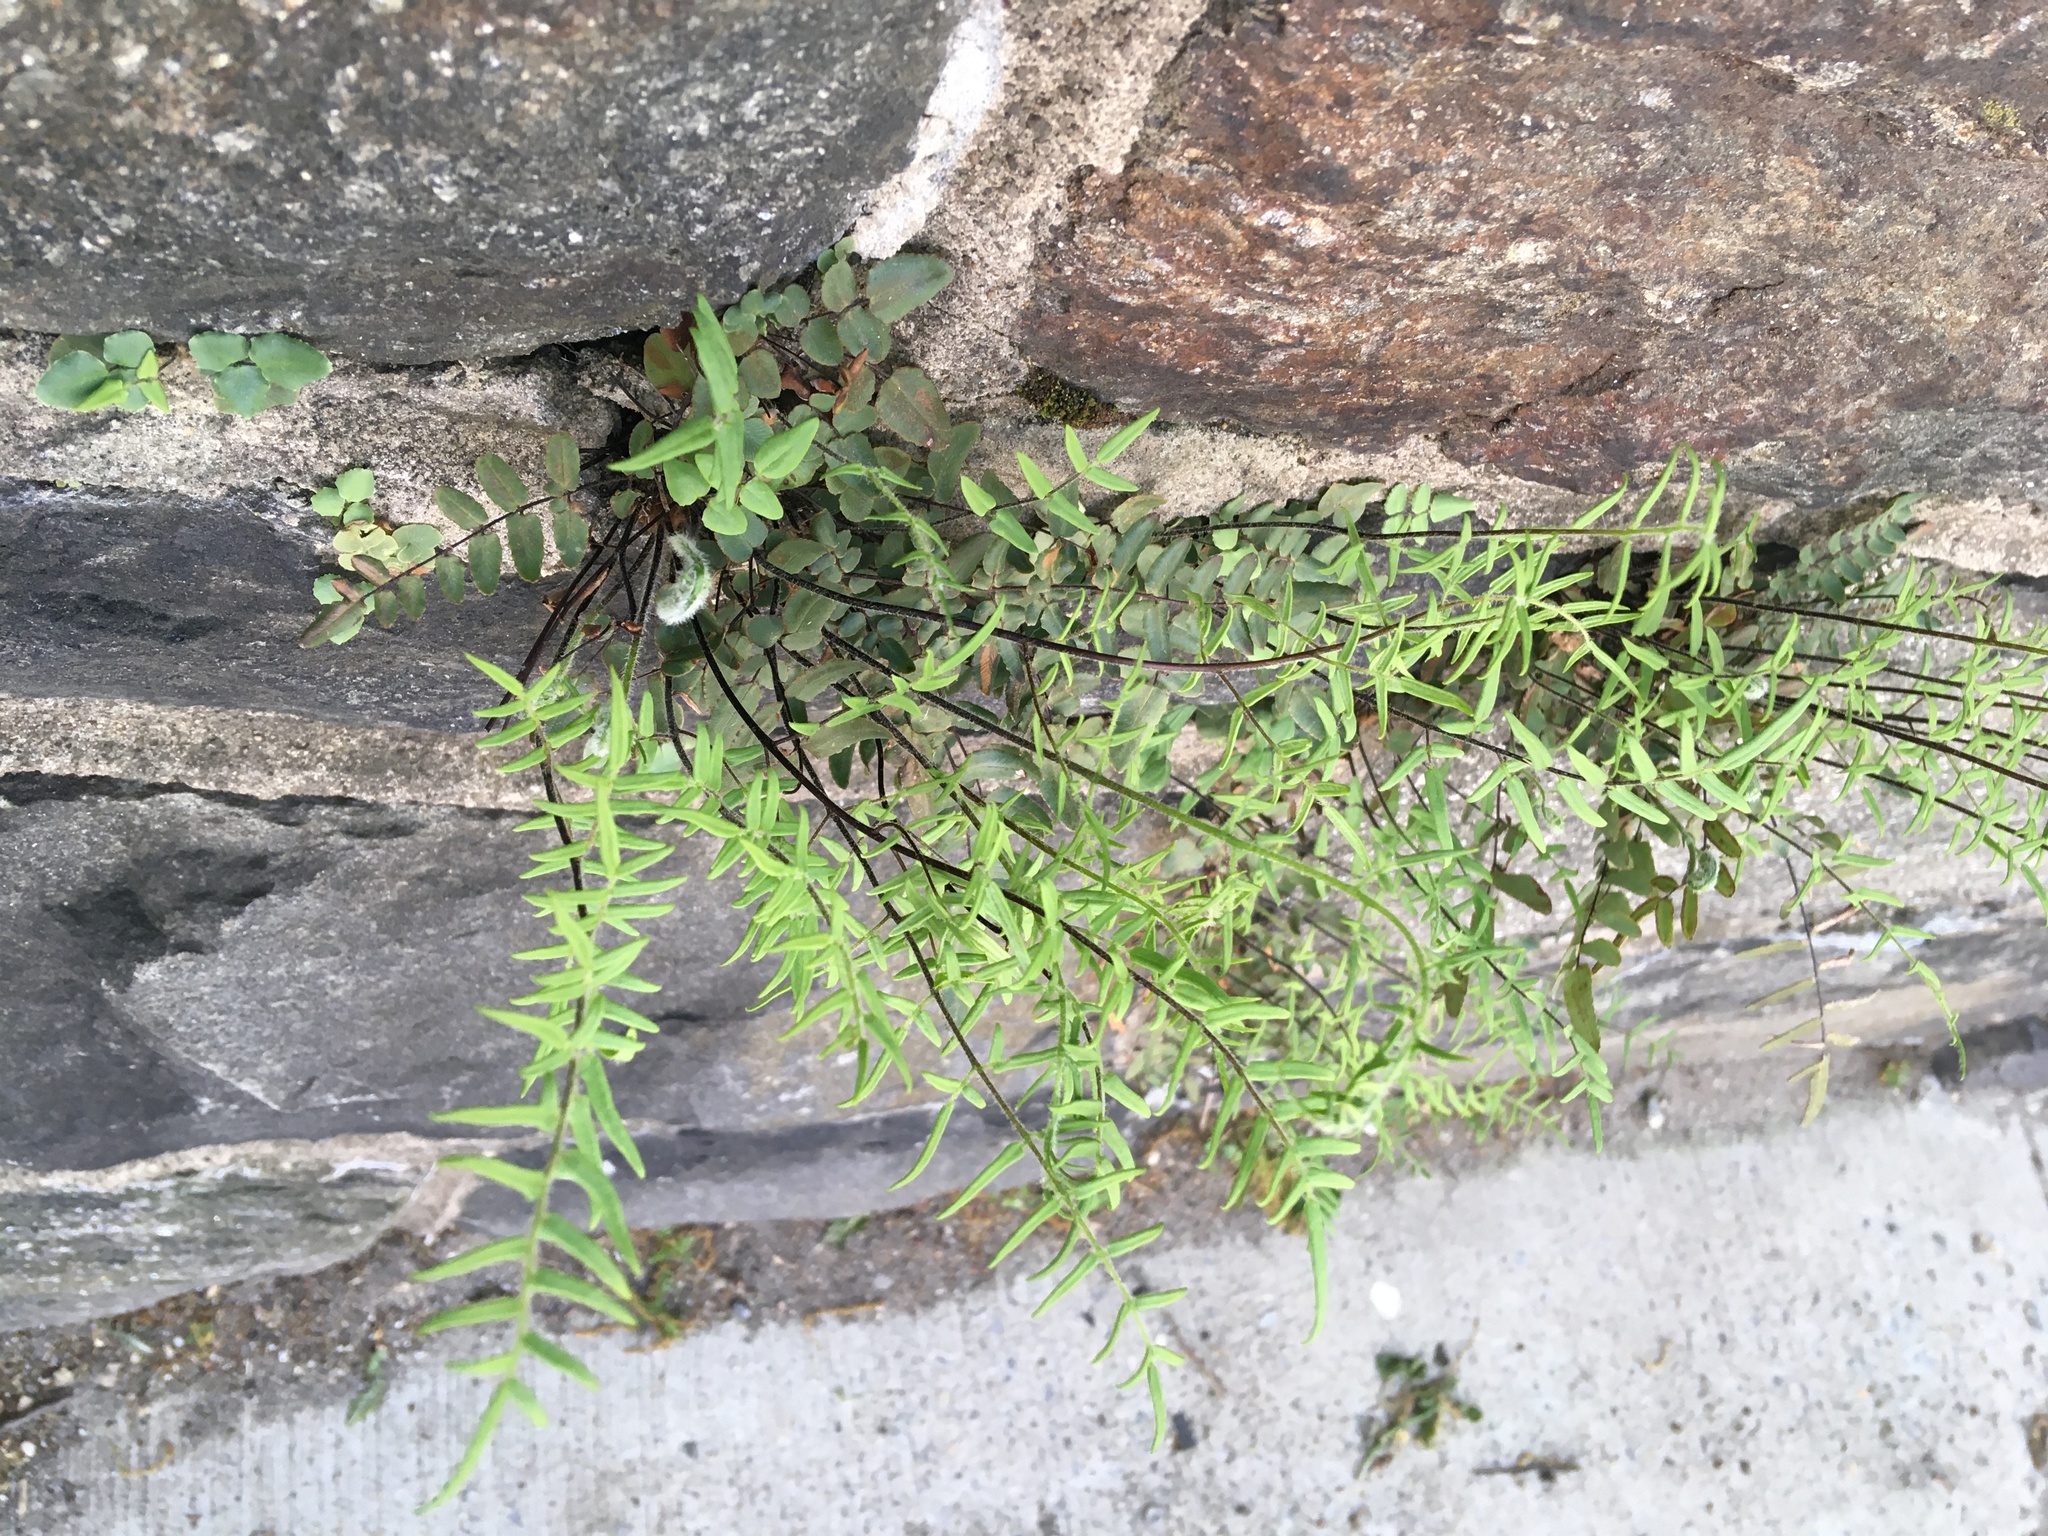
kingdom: Plantae
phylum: Tracheophyta
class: Polypodiopsida
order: Polypodiales
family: Pteridaceae
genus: Pellaea
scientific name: Pellaea atropurpurea
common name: Hairy cliffbrake
